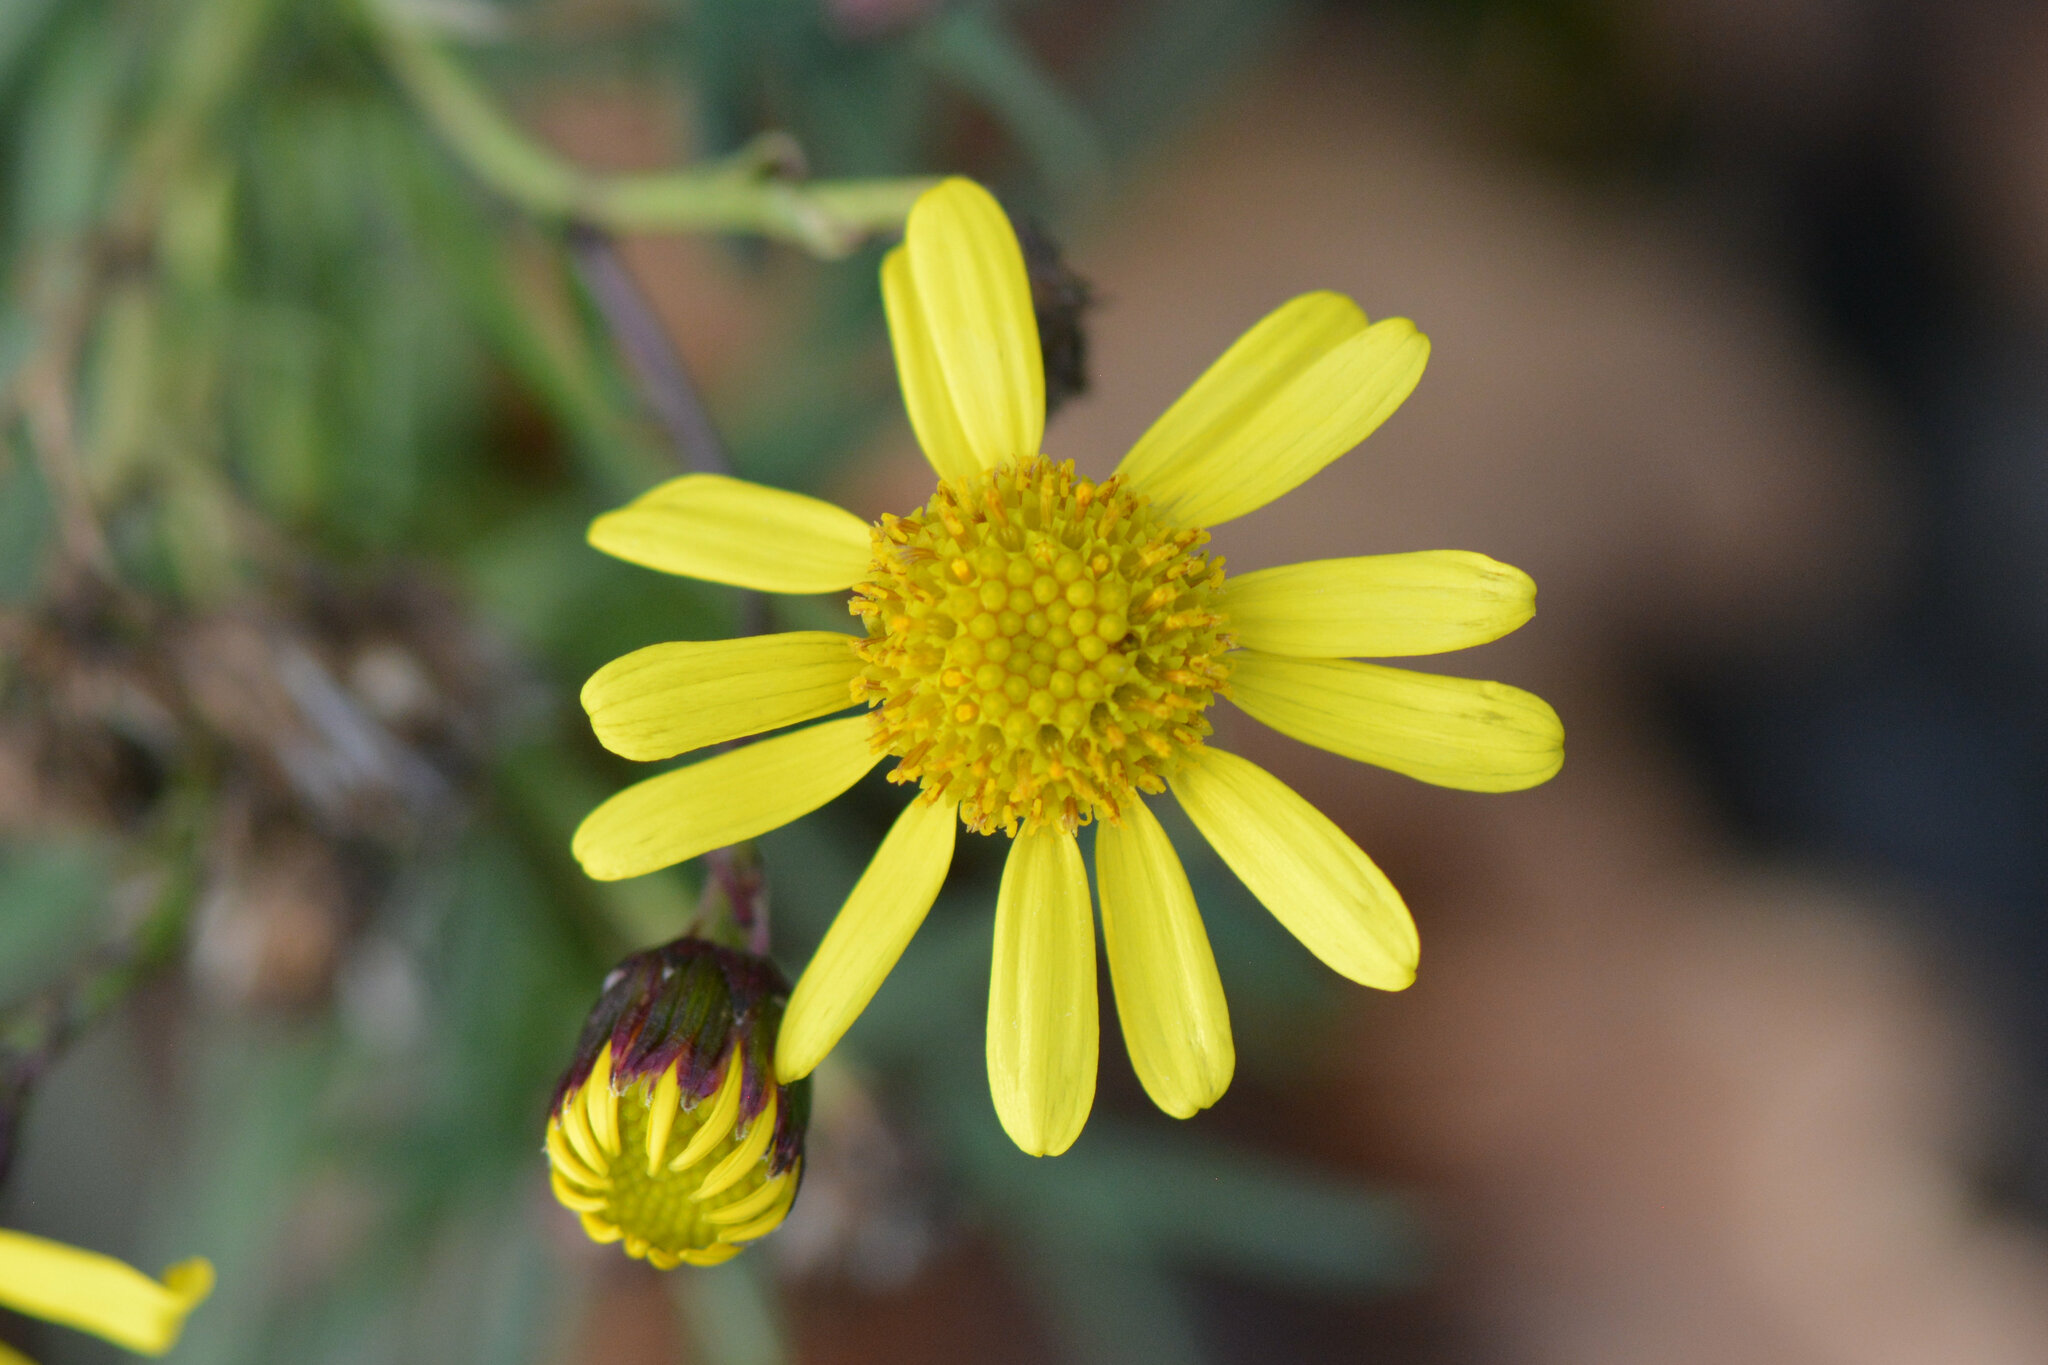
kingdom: Plantae
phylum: Tracheophyta
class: Magnoliopsida
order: Asterales
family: Asteraceae
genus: Senecio
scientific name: Senecio inaequidens
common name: Narrow-leaved ragwort
